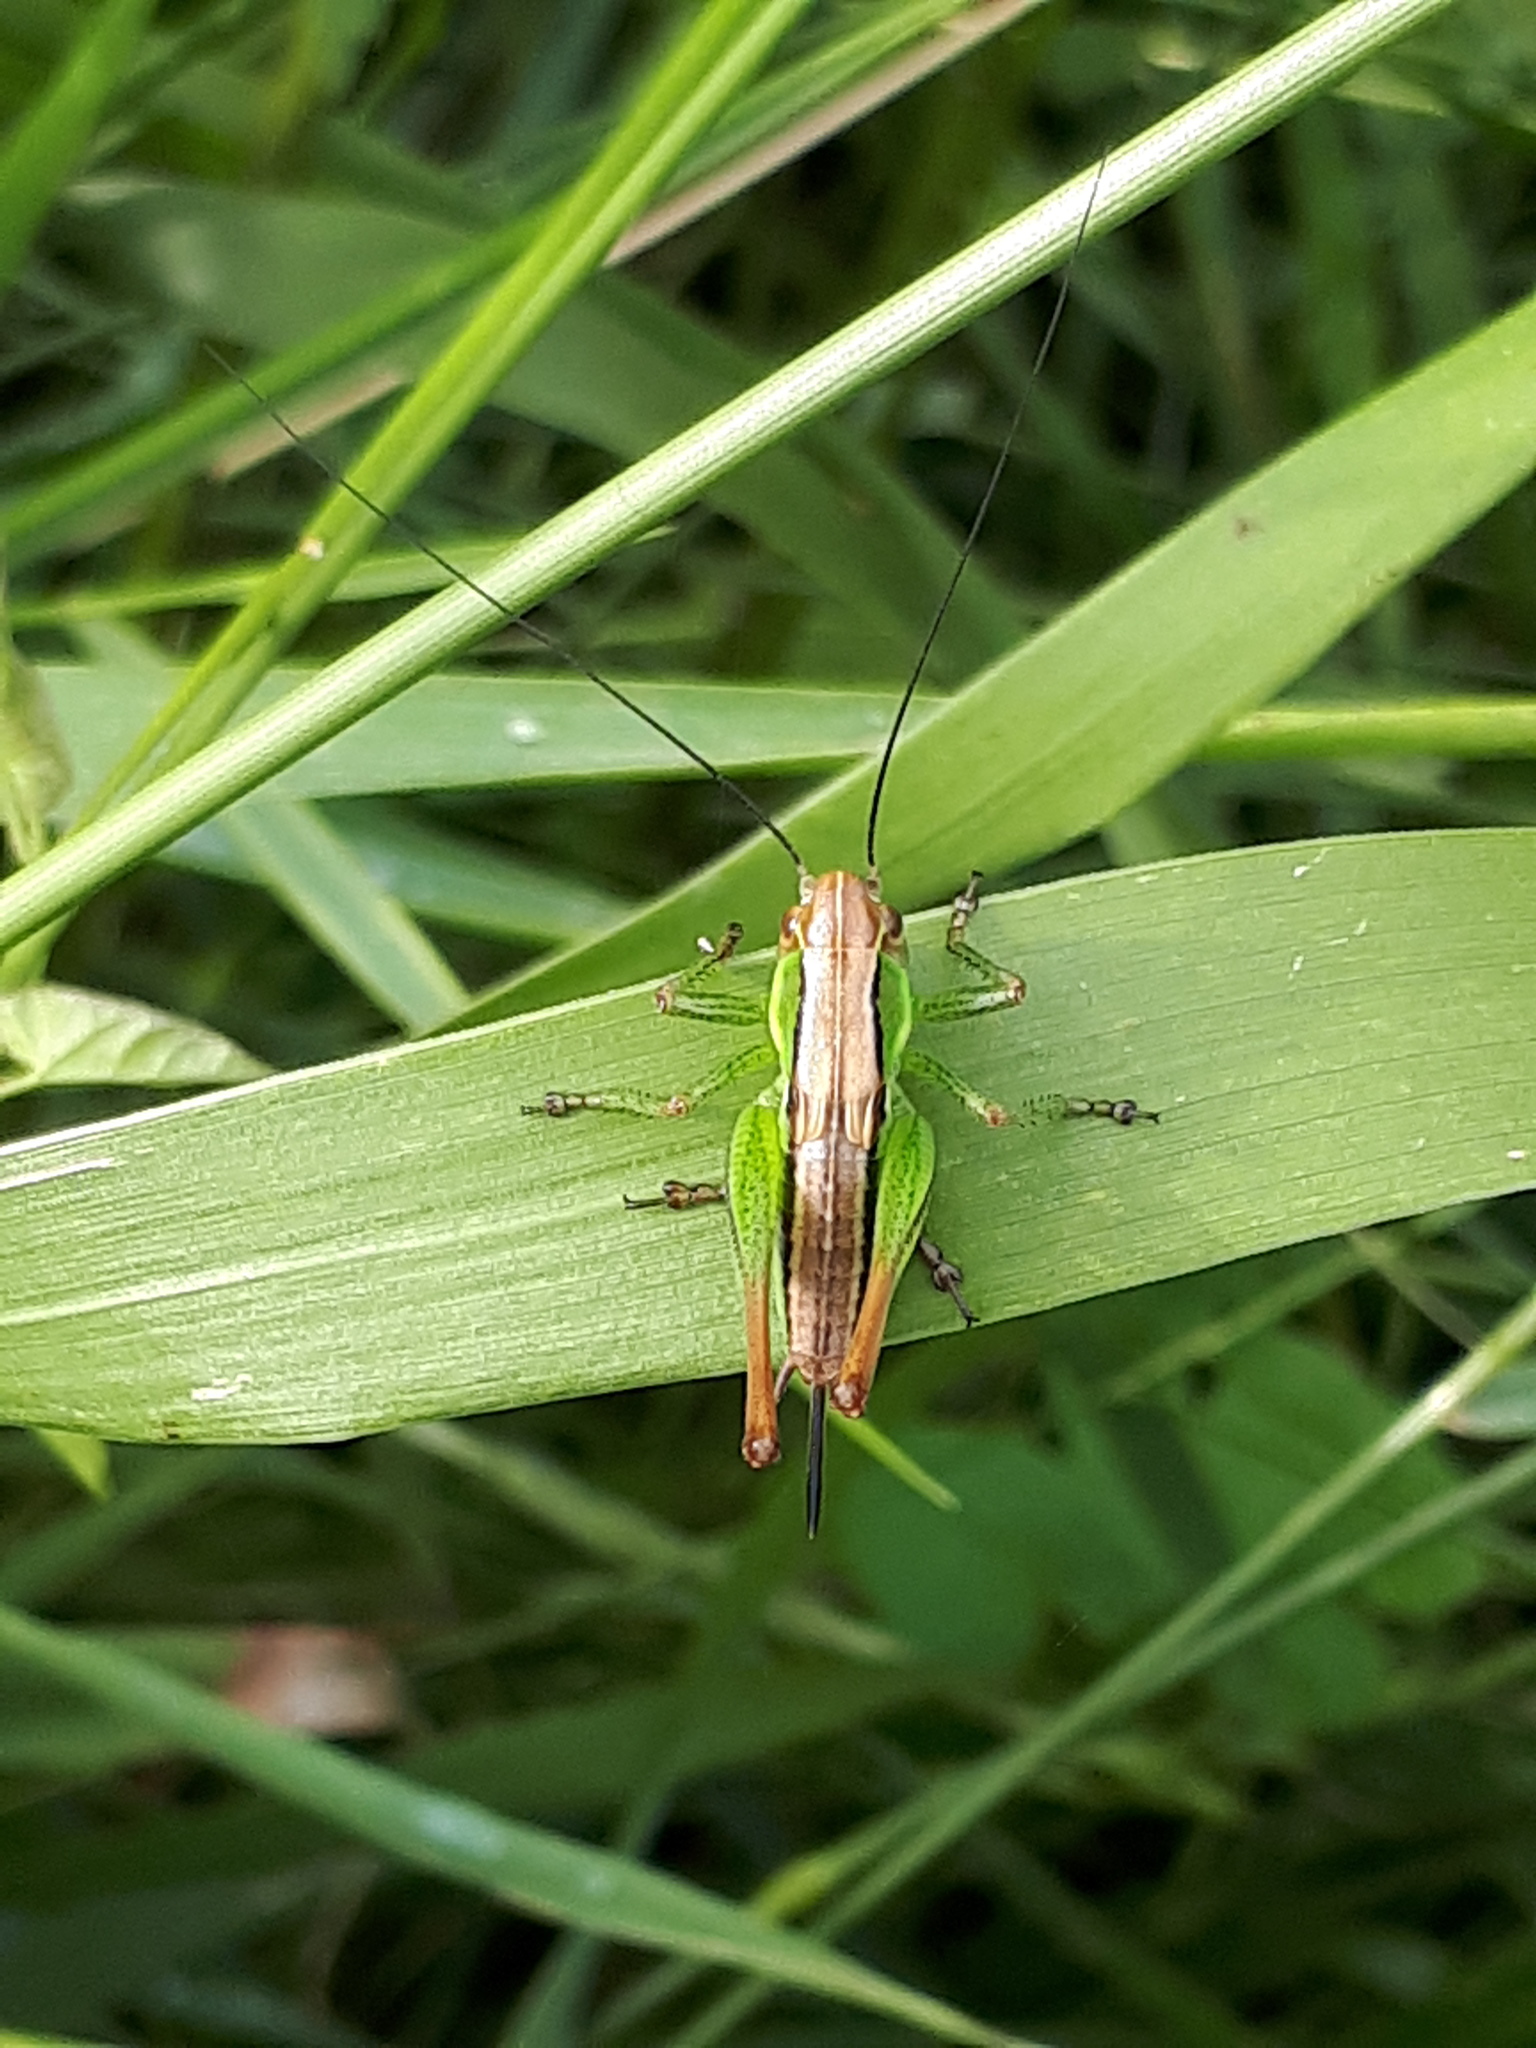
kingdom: Animalia
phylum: Arthropoda
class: Insecta
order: Orthoptera
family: Tettigoniidae
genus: Roeseliana
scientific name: Roeseliana roeselii
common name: Roesel's bush cricket
